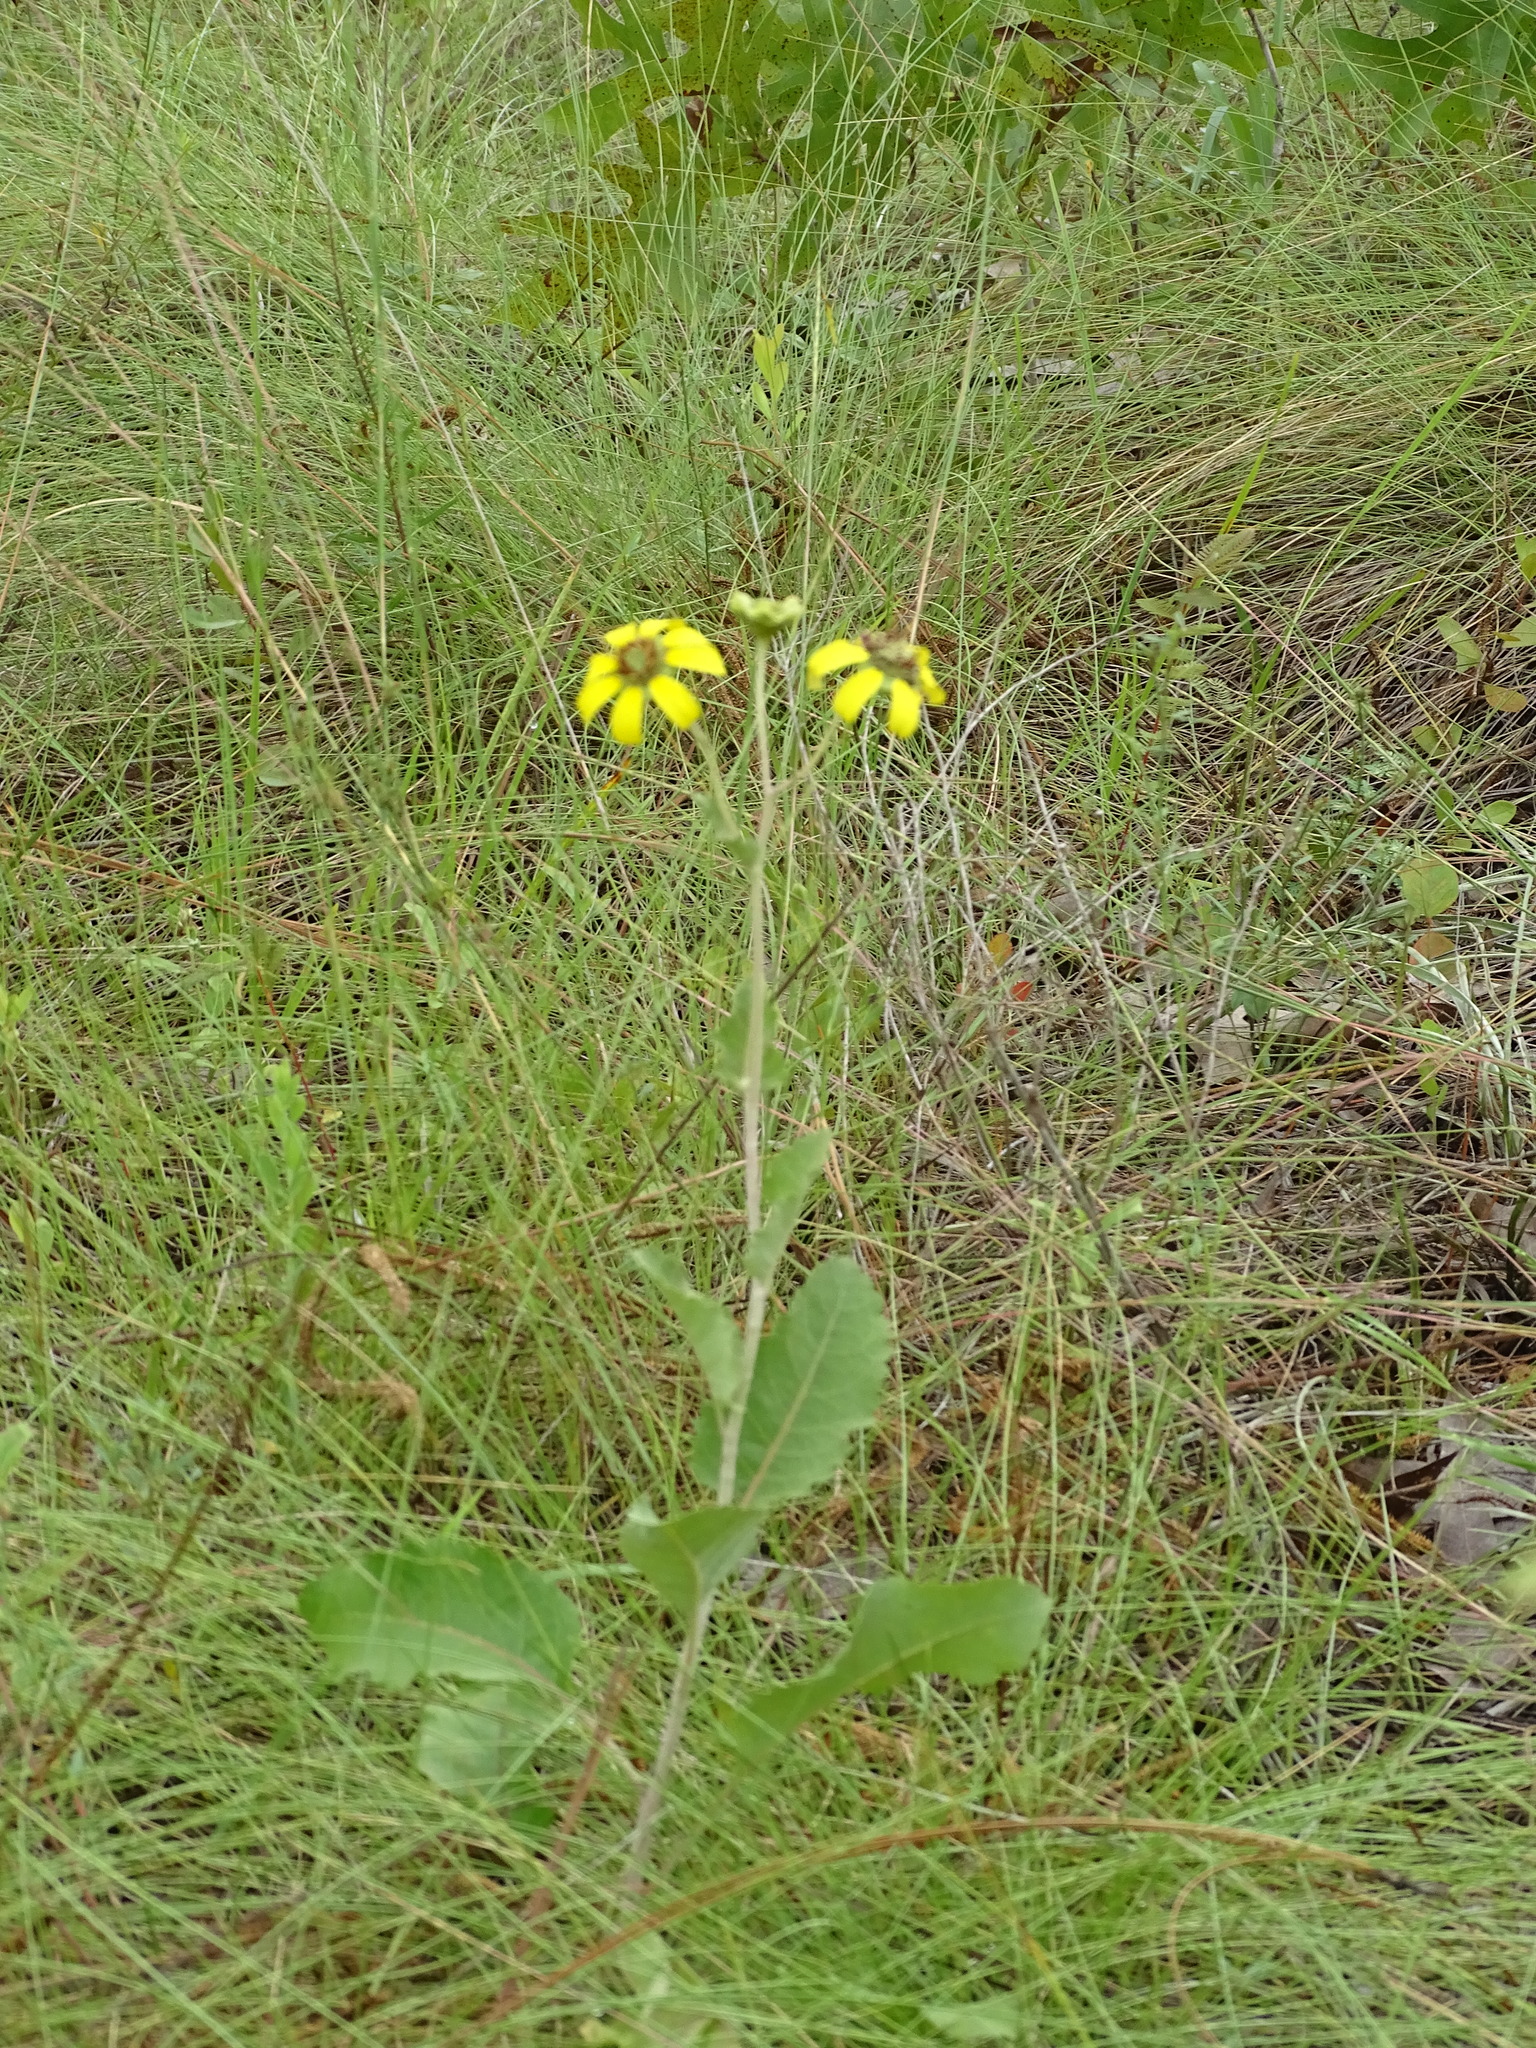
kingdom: Plantae
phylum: Tracheophyta
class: Magnoliopsida
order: Asterales
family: Asteraceae
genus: Berlandiera
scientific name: Berlandiera pumila
